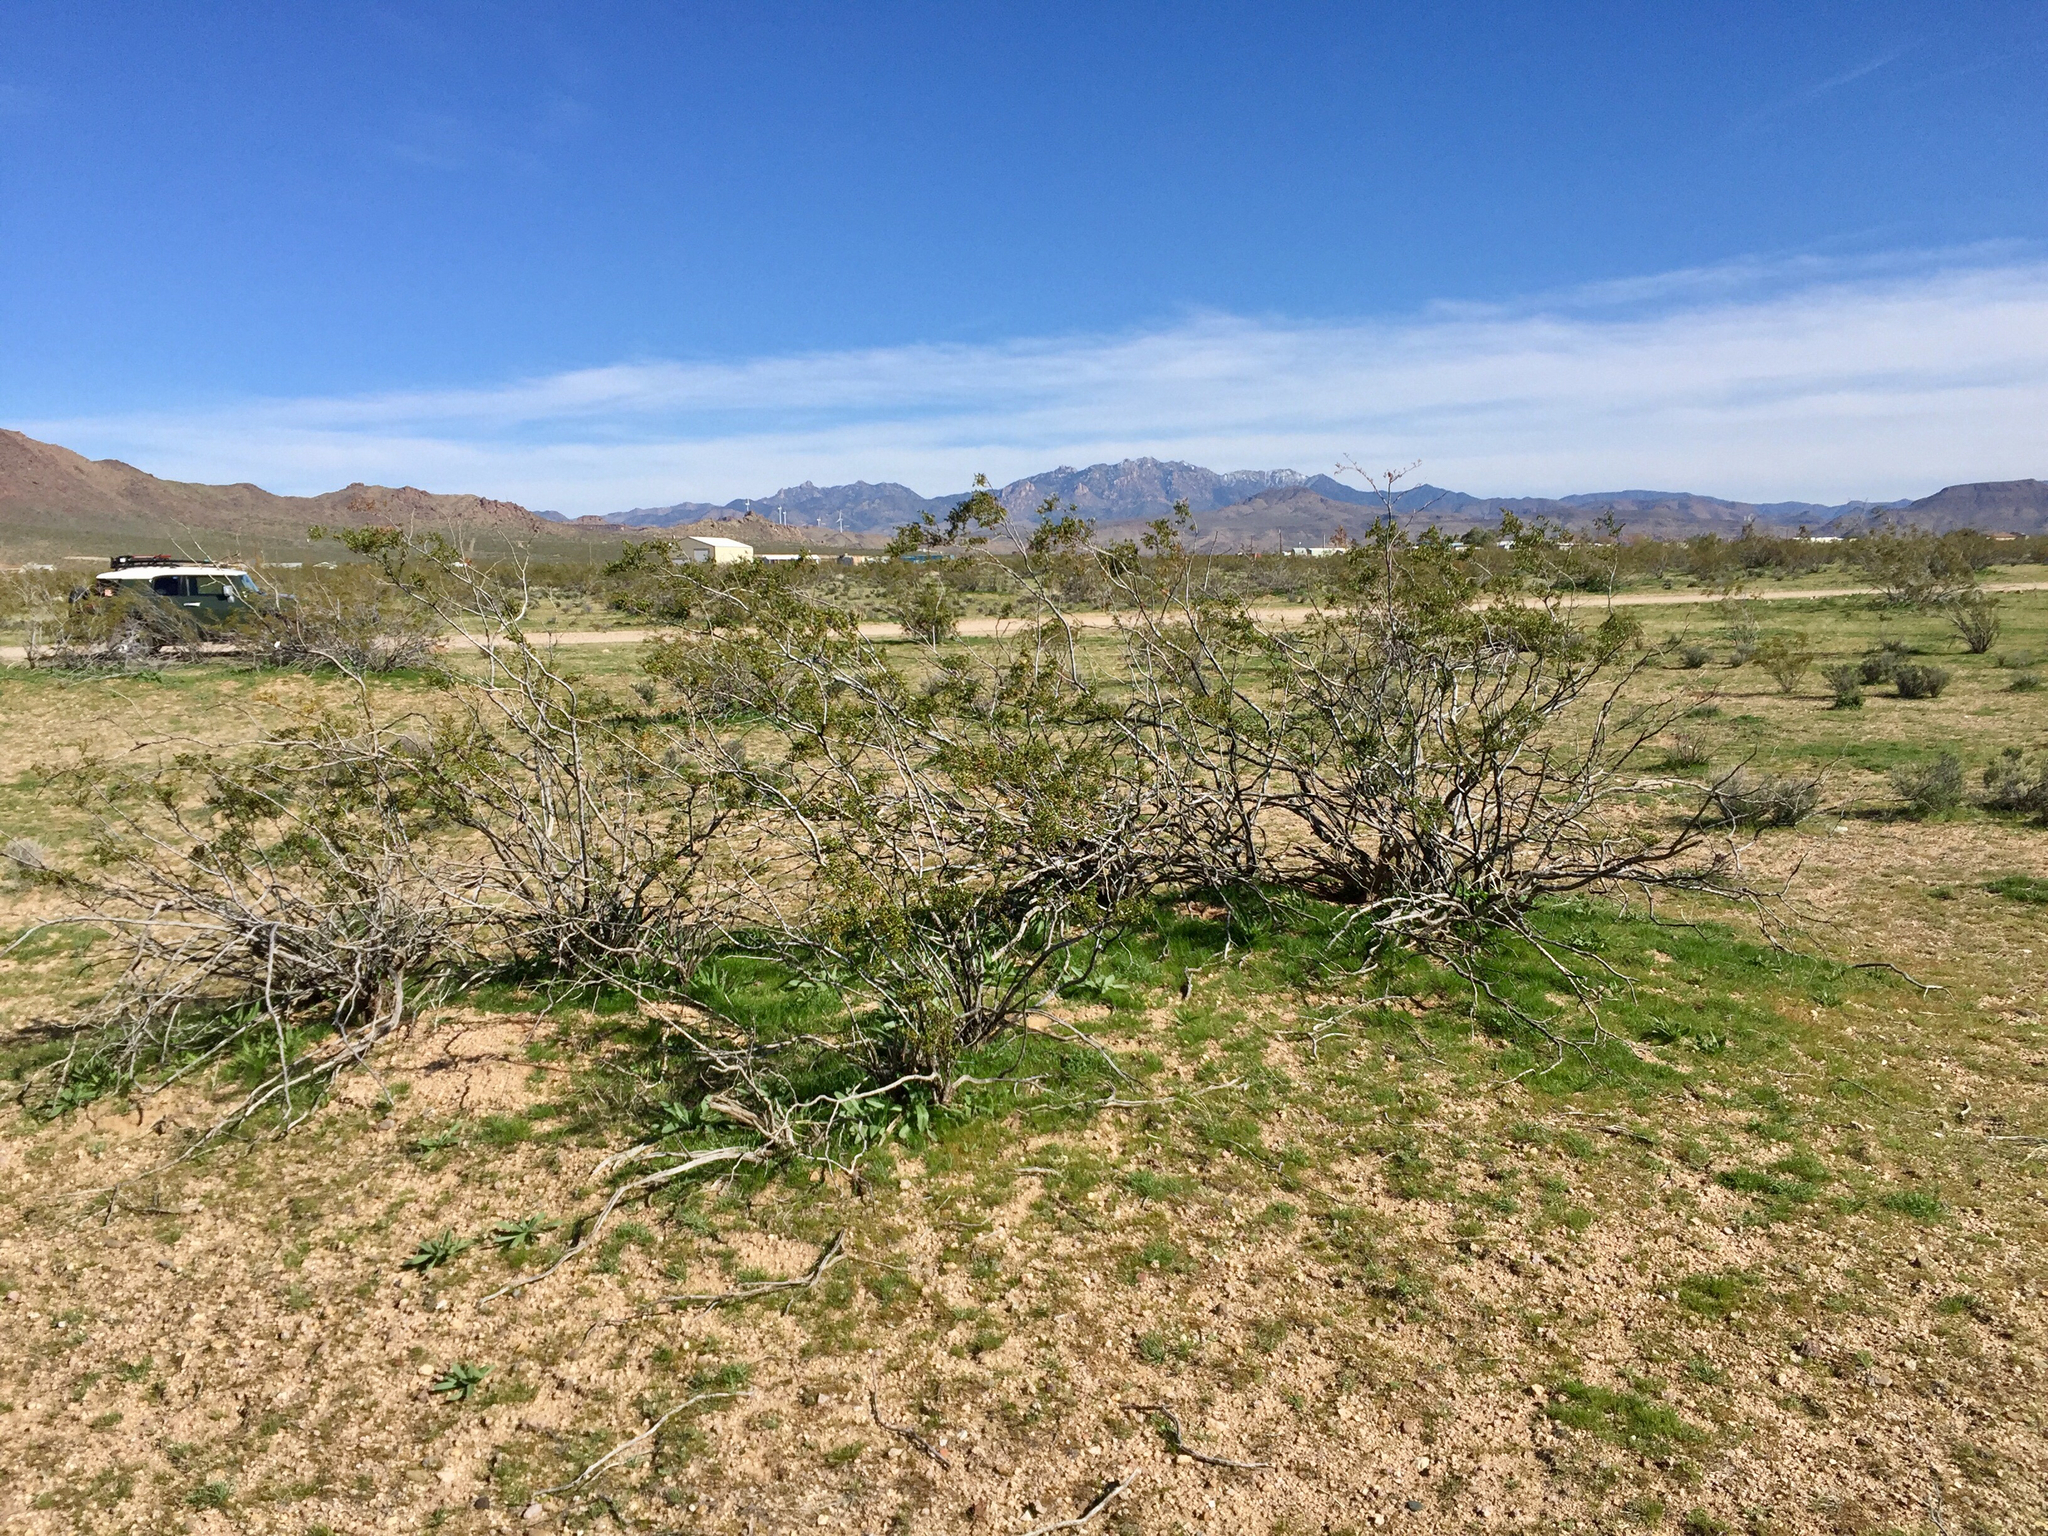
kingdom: Plantae
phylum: Tracheophyta
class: Magnoliopsida
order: Zygophyllales
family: Zygophyllaceae
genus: Larrea
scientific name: Larrea tridentata
